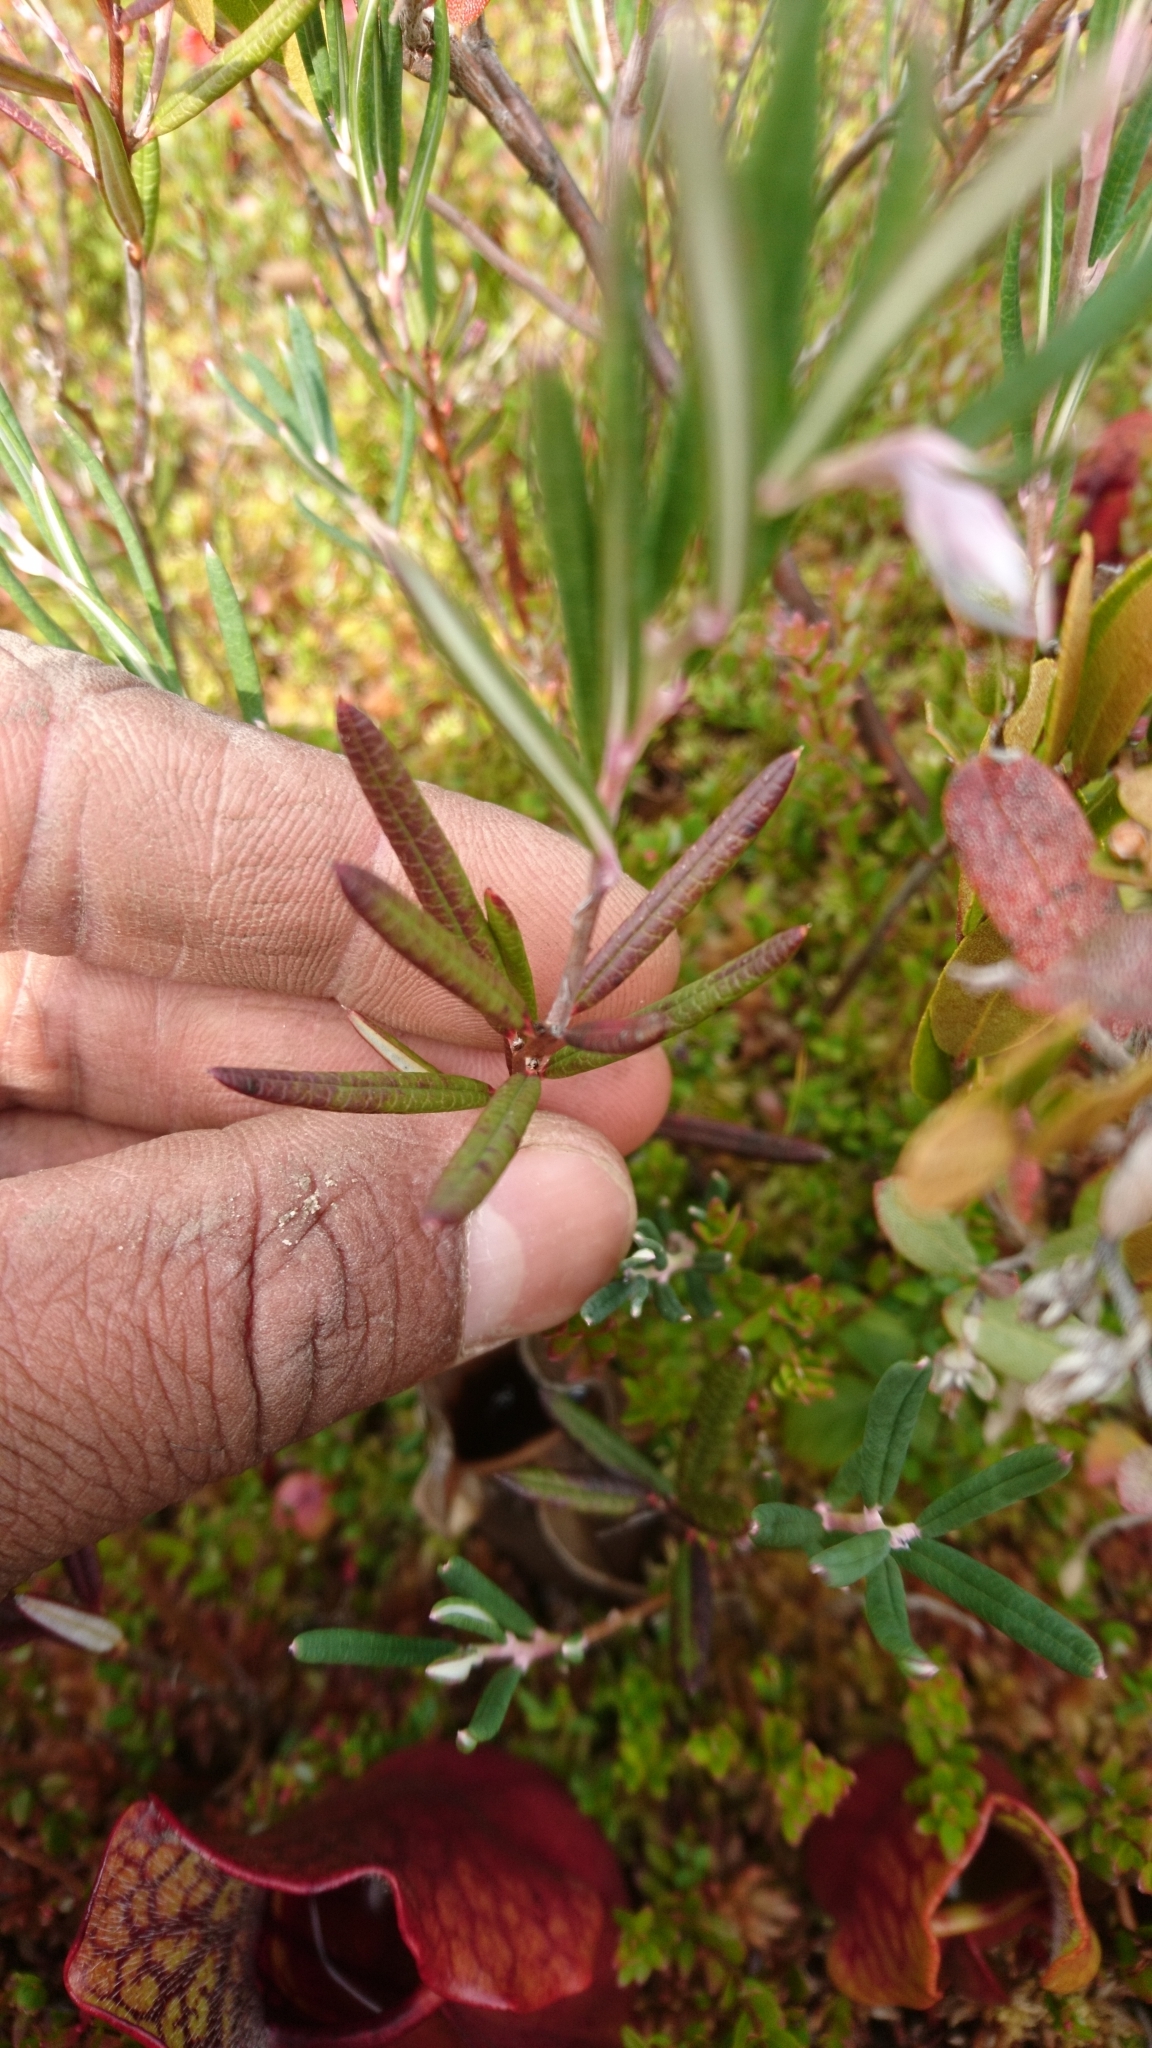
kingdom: Plantae
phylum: Tracheophyta
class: Magnoliopsida
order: Ericales
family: Ericaceae
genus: Andromeda
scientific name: Andromeda polifolia
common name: Bog-rosemary
